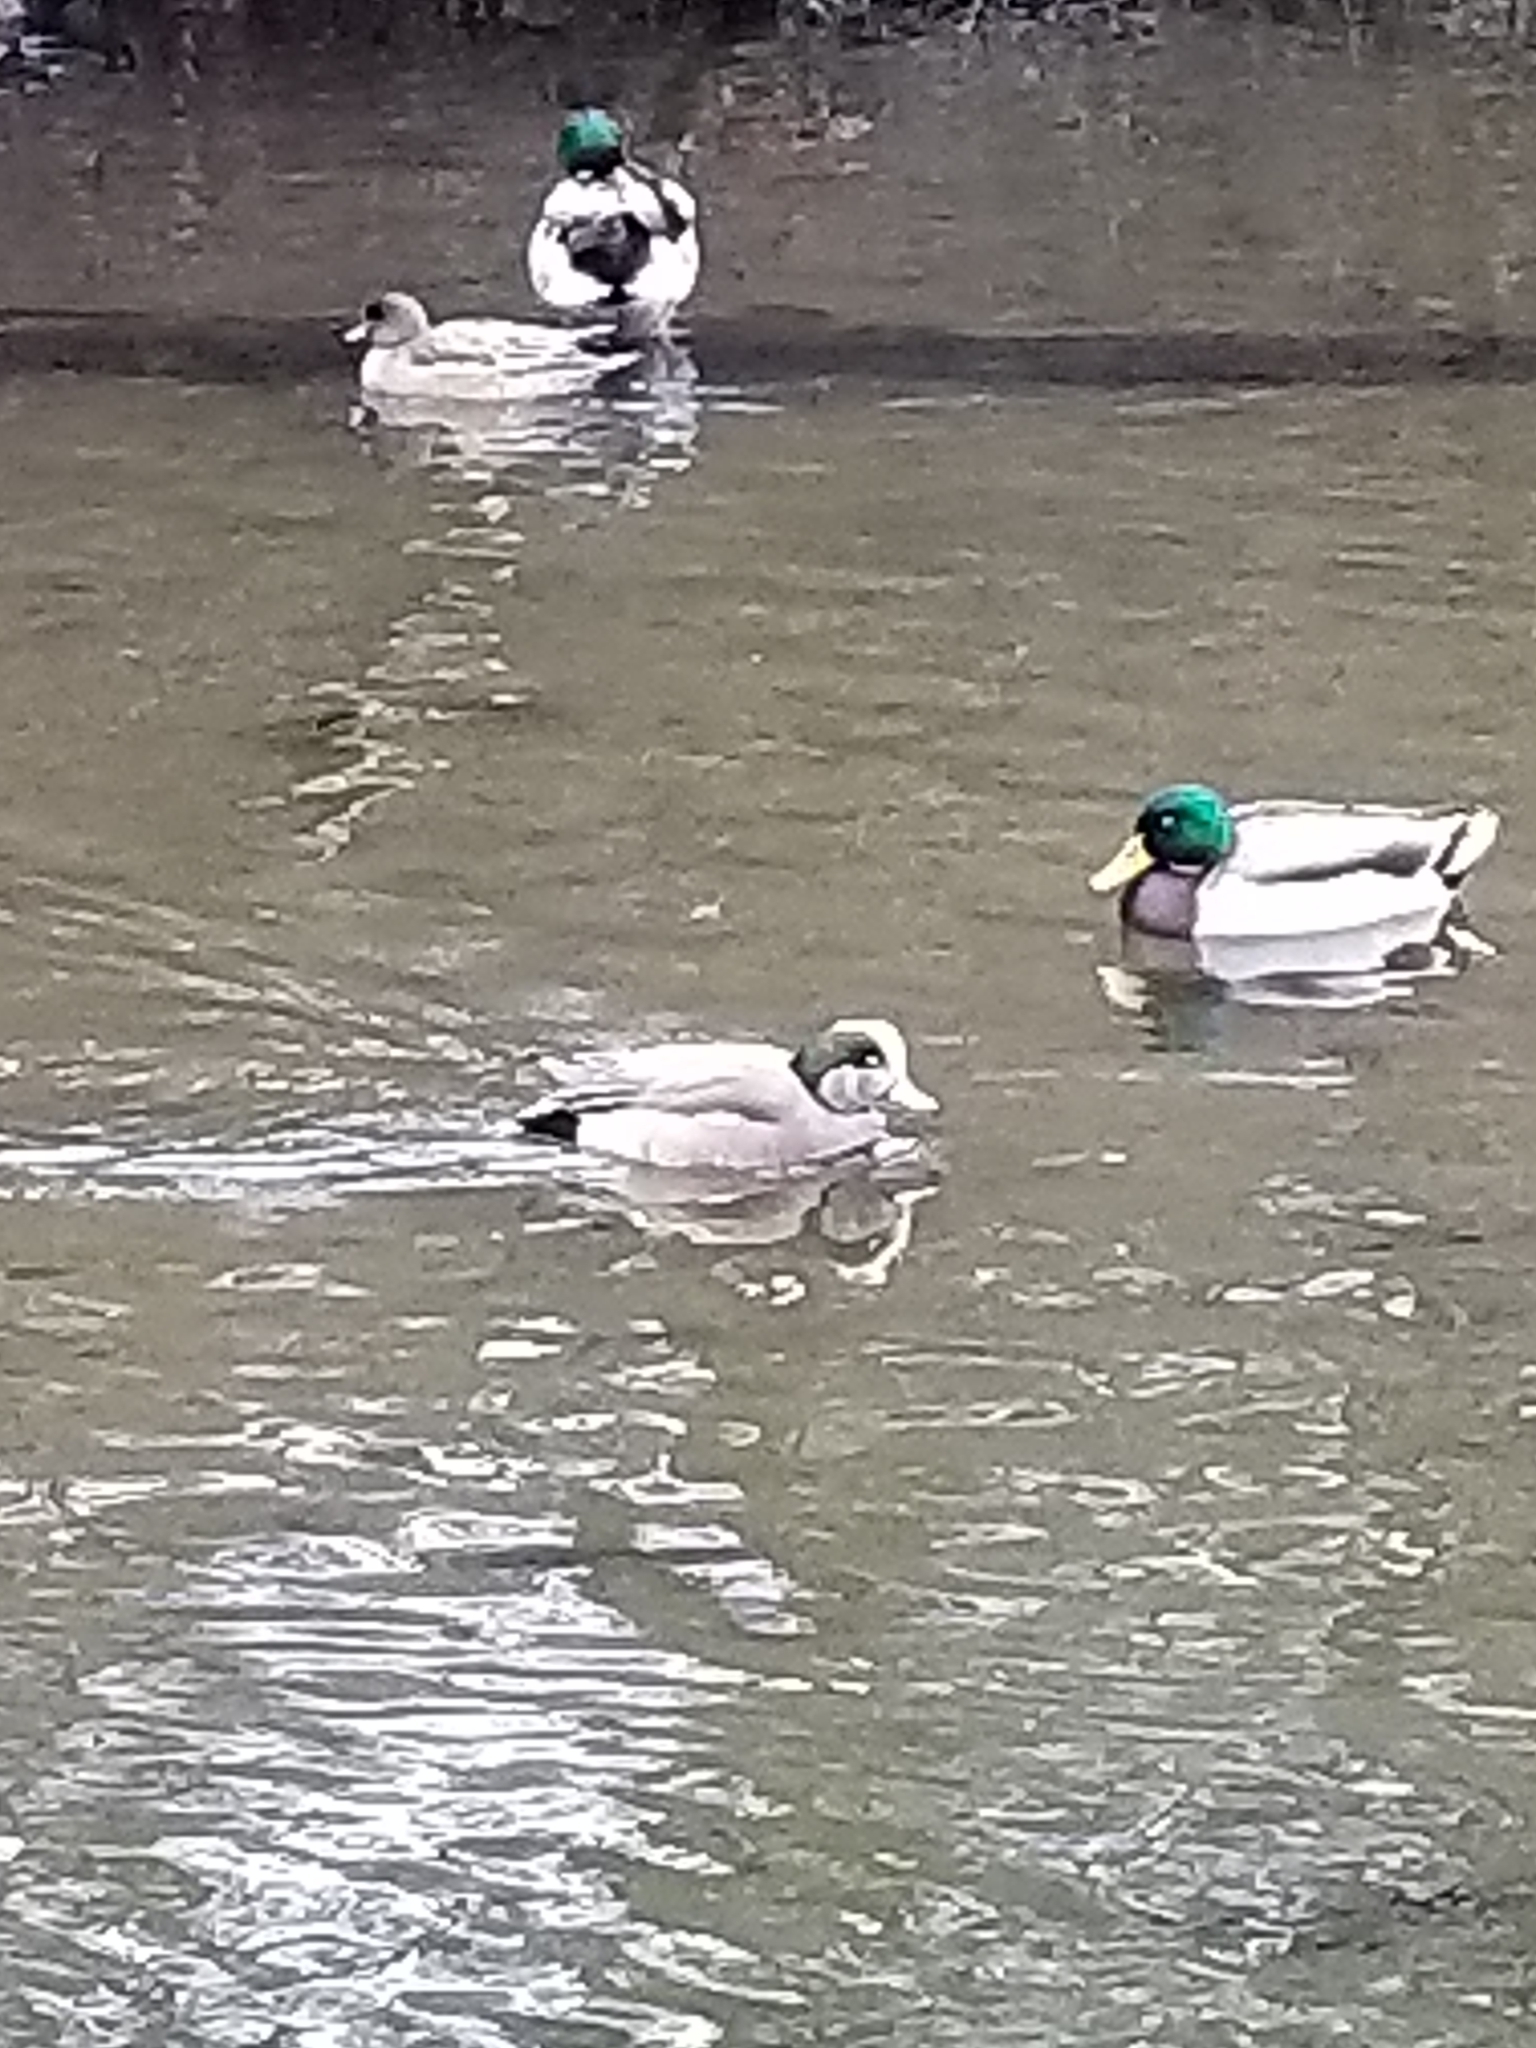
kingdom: Animalia
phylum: Chordata
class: Aves
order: Anseriformes
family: Anatidae
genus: Mareca
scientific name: Mareca americana
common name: American wigeon
